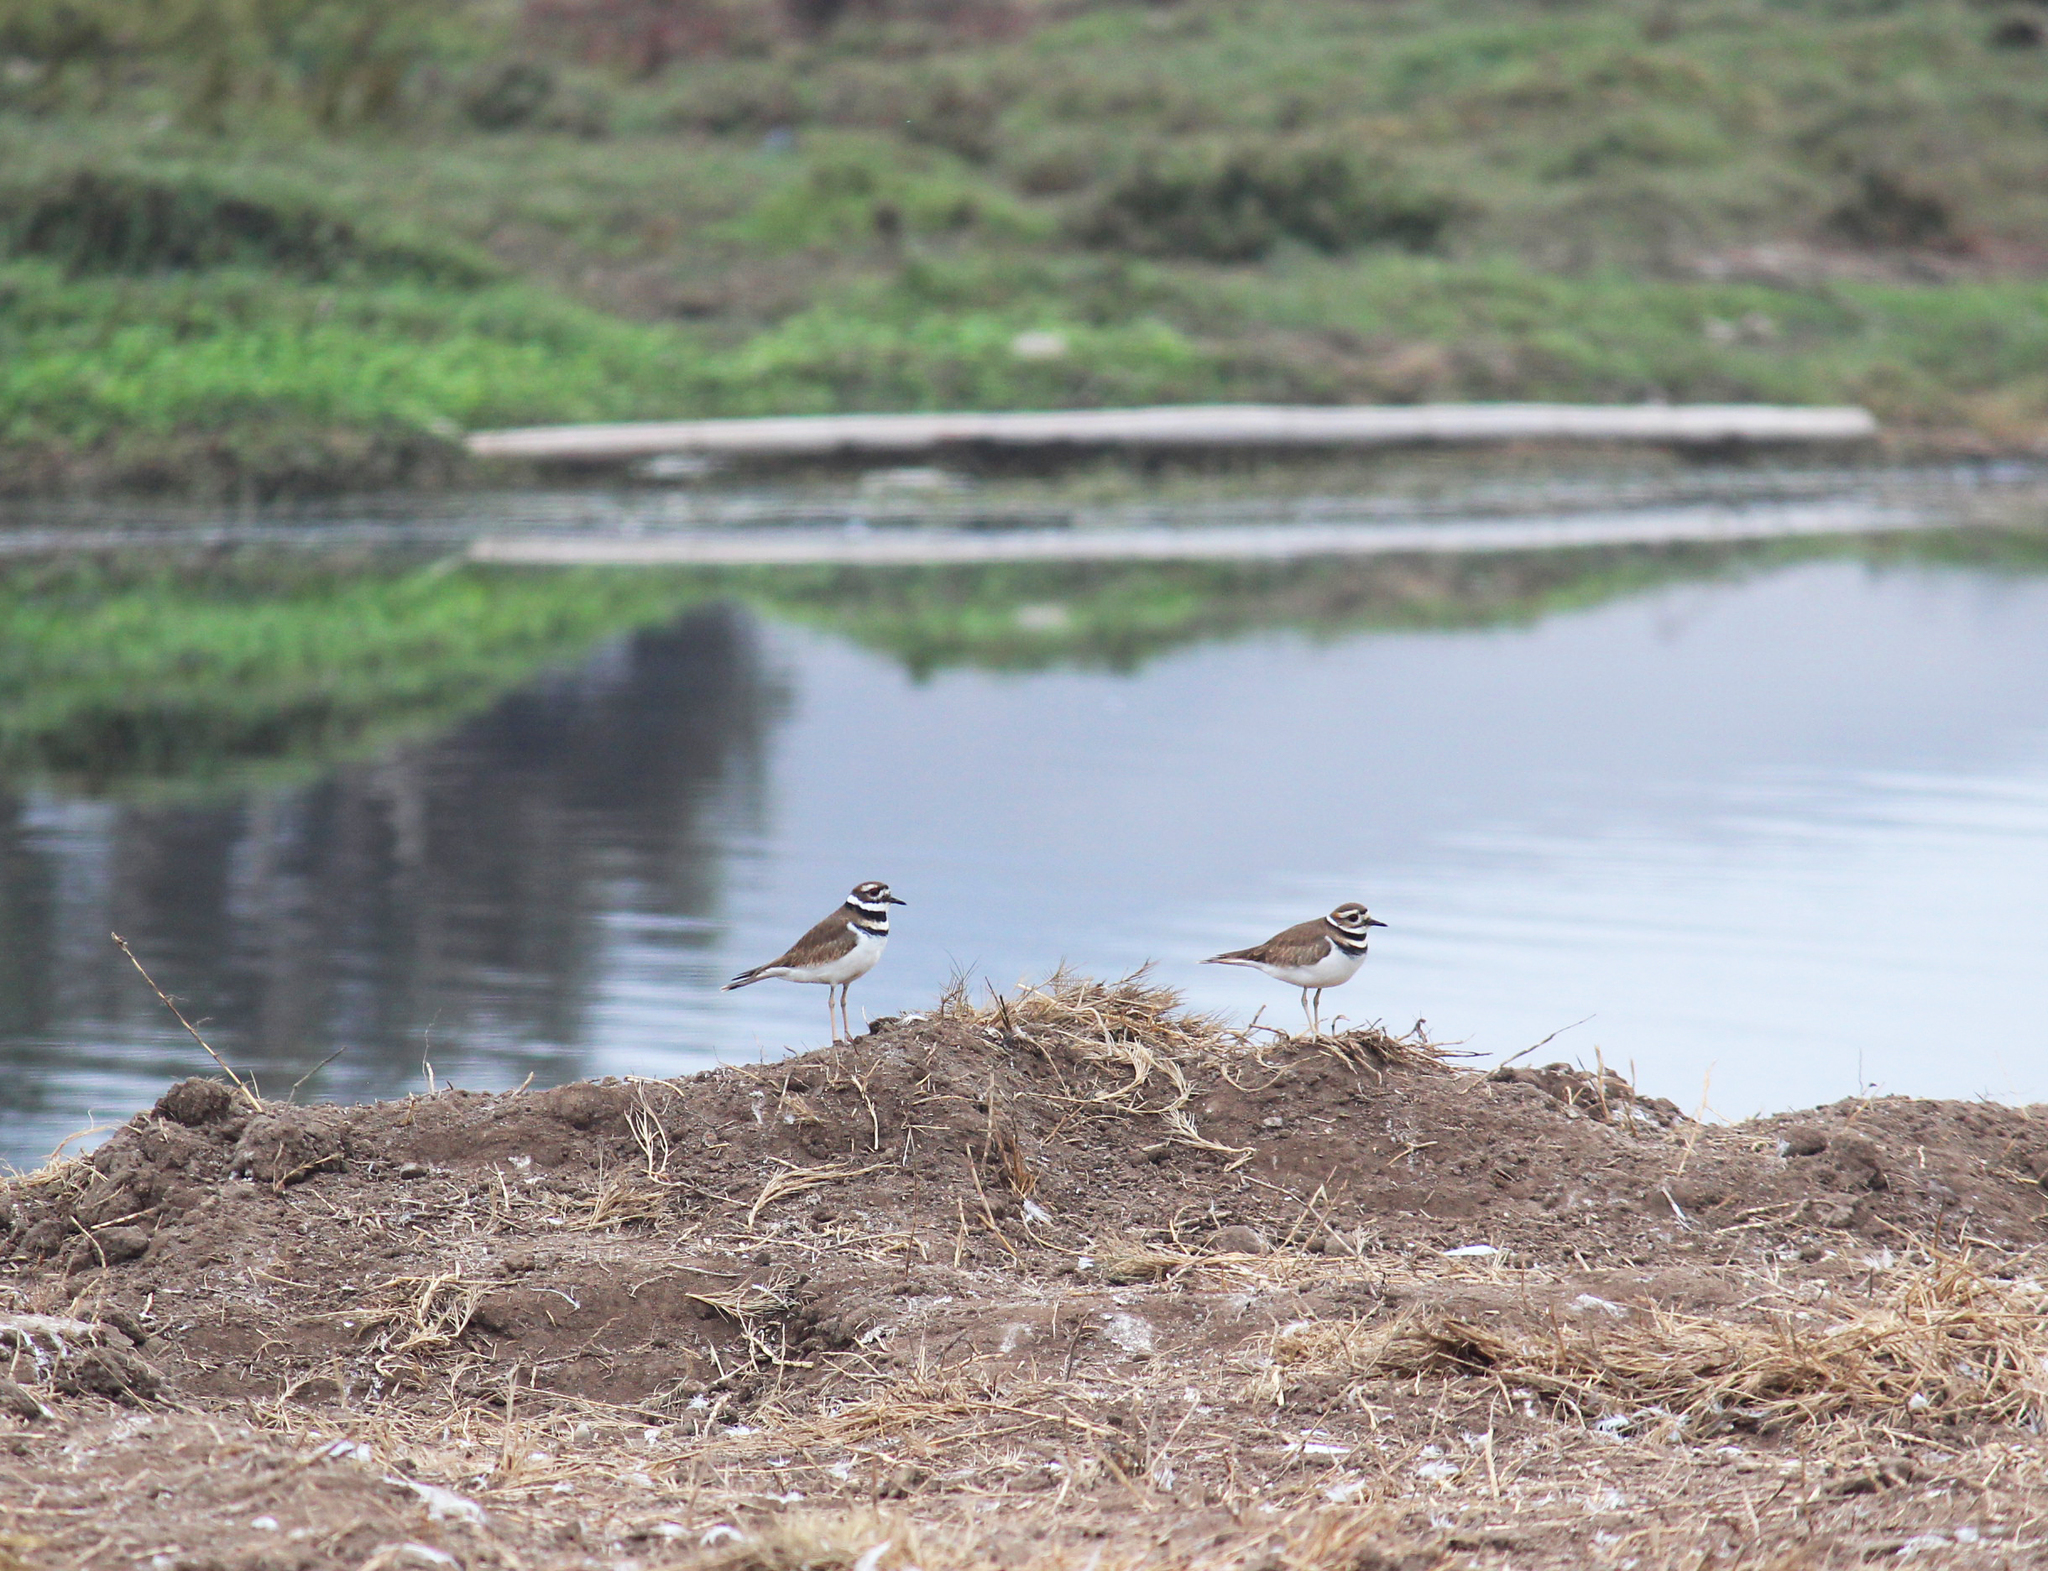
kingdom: Animalia
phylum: Chordata
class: Aves
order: Charadriiformes
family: Charadriidae
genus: Charadrius
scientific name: Charadrius vociferus
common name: Killdeer
